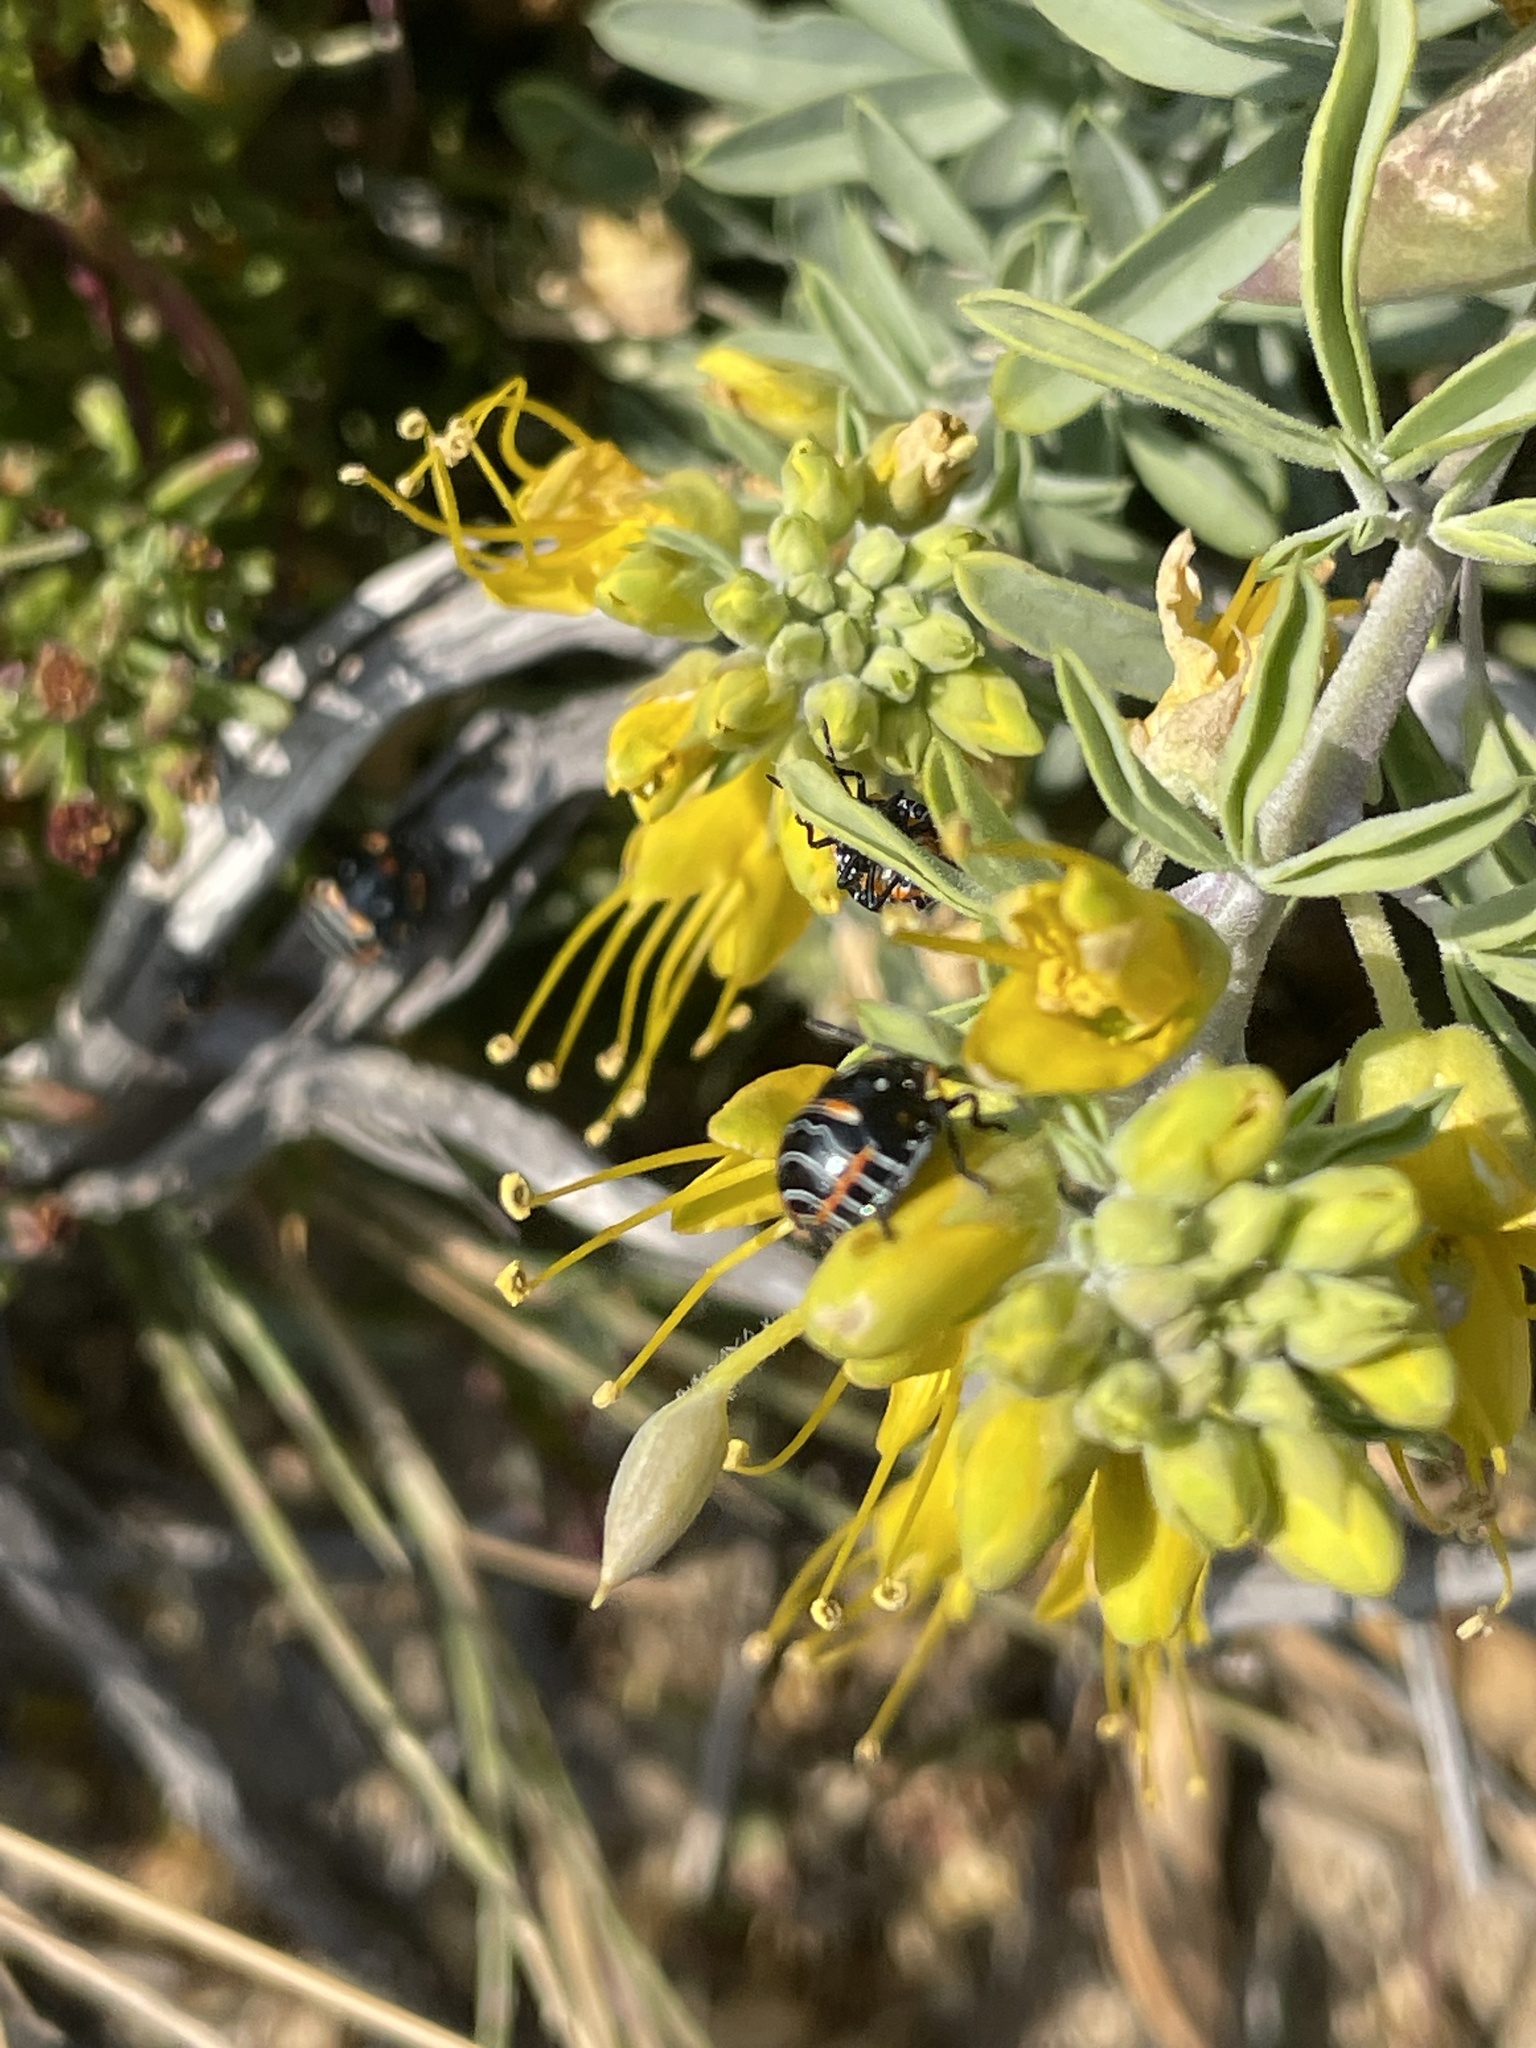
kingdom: Animalia
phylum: Arthropoda
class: Insecta
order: Hemiptera
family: Pentatomidae
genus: Murgantia
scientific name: Murgantia histrionica
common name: Harlequin bug
